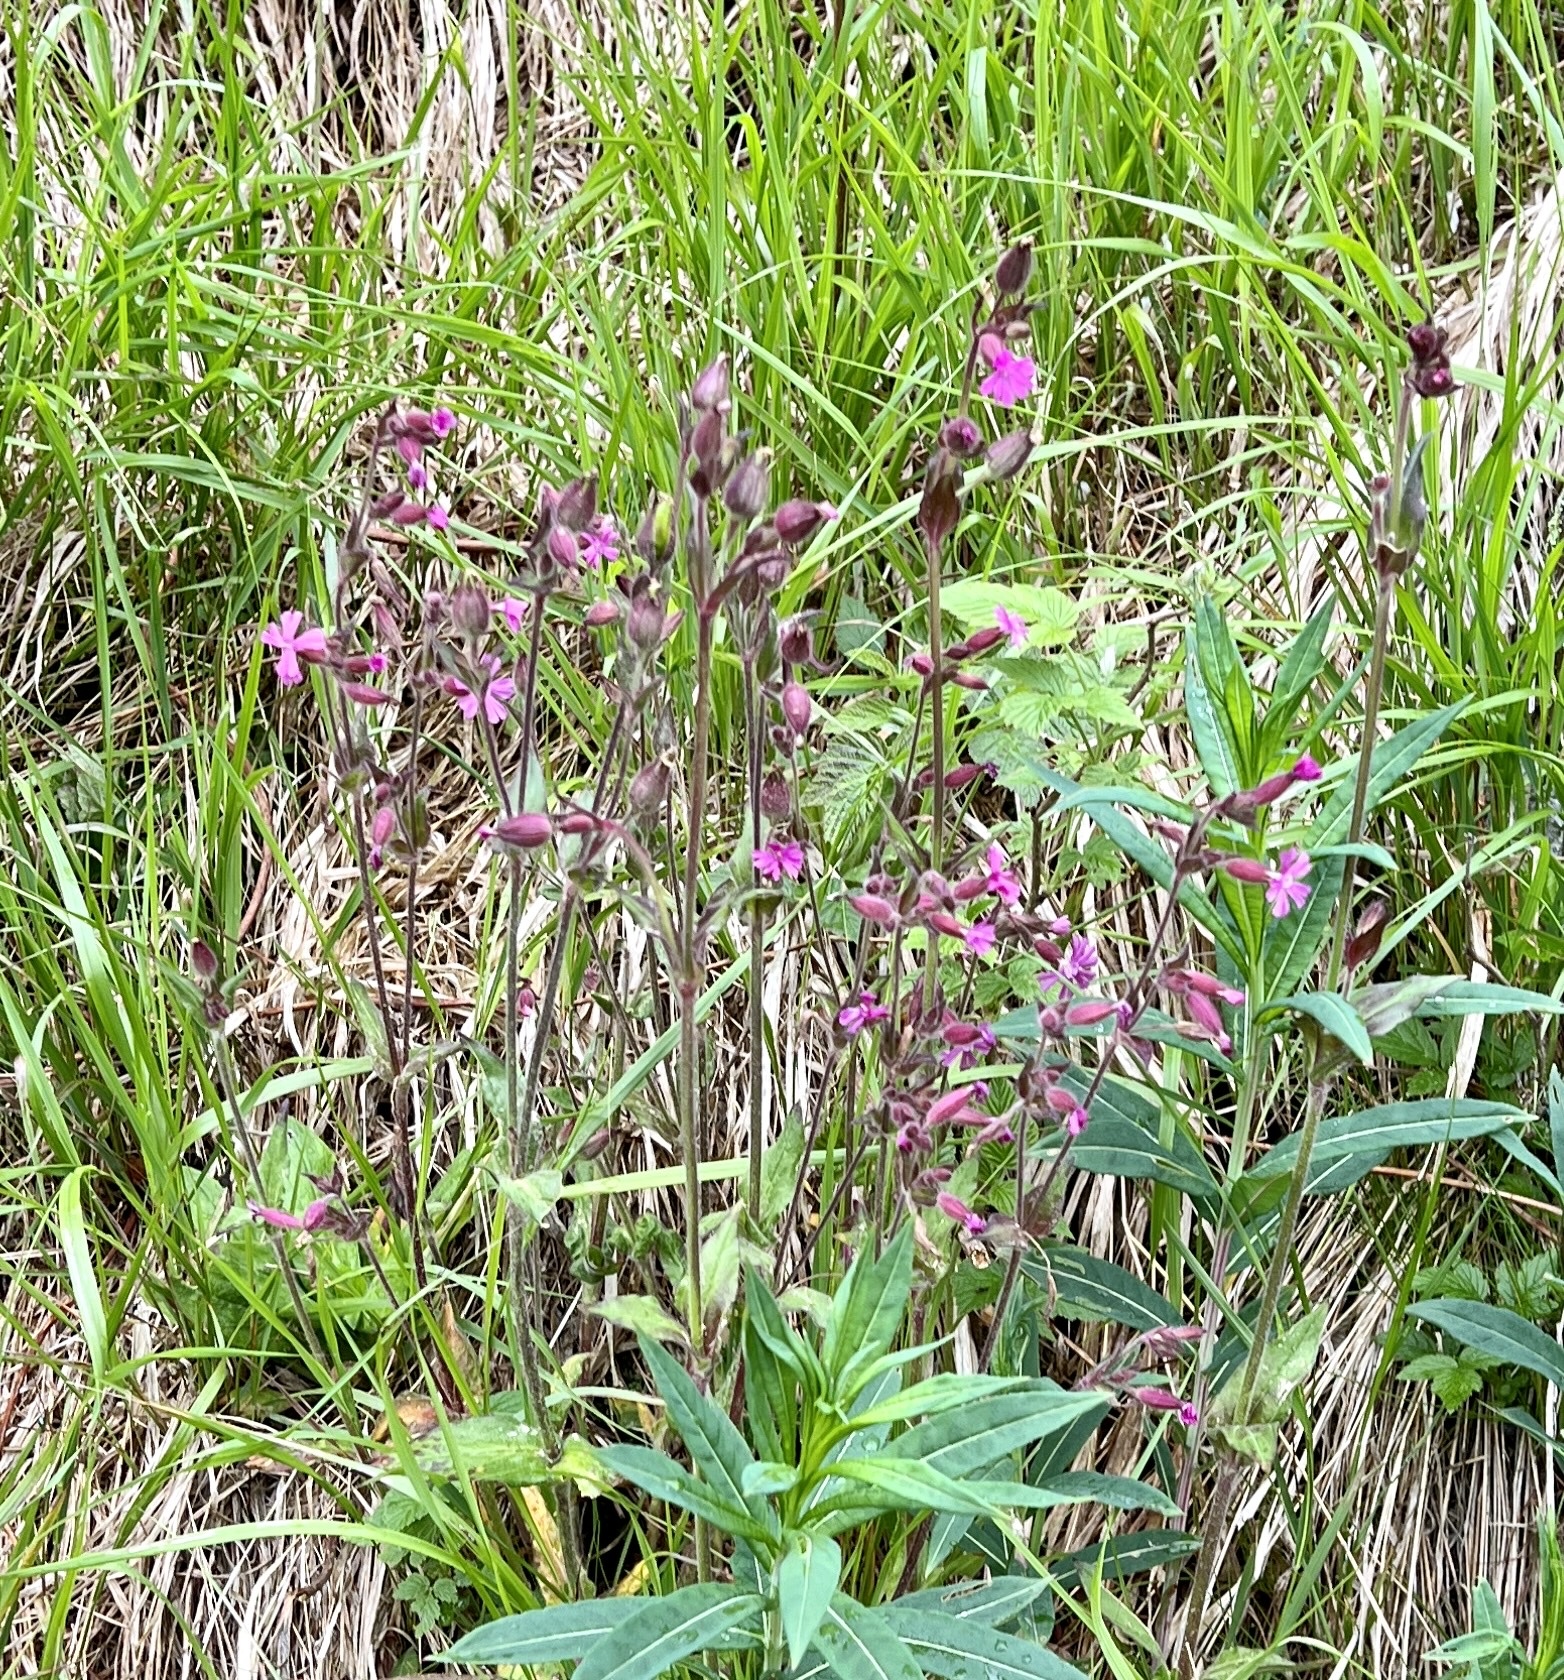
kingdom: Plantae
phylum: Tracheophyta
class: Magnoliopsida
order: Caryophyllales
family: Caryophyllaceae
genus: Silene
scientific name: Silene dioica
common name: Red campion
